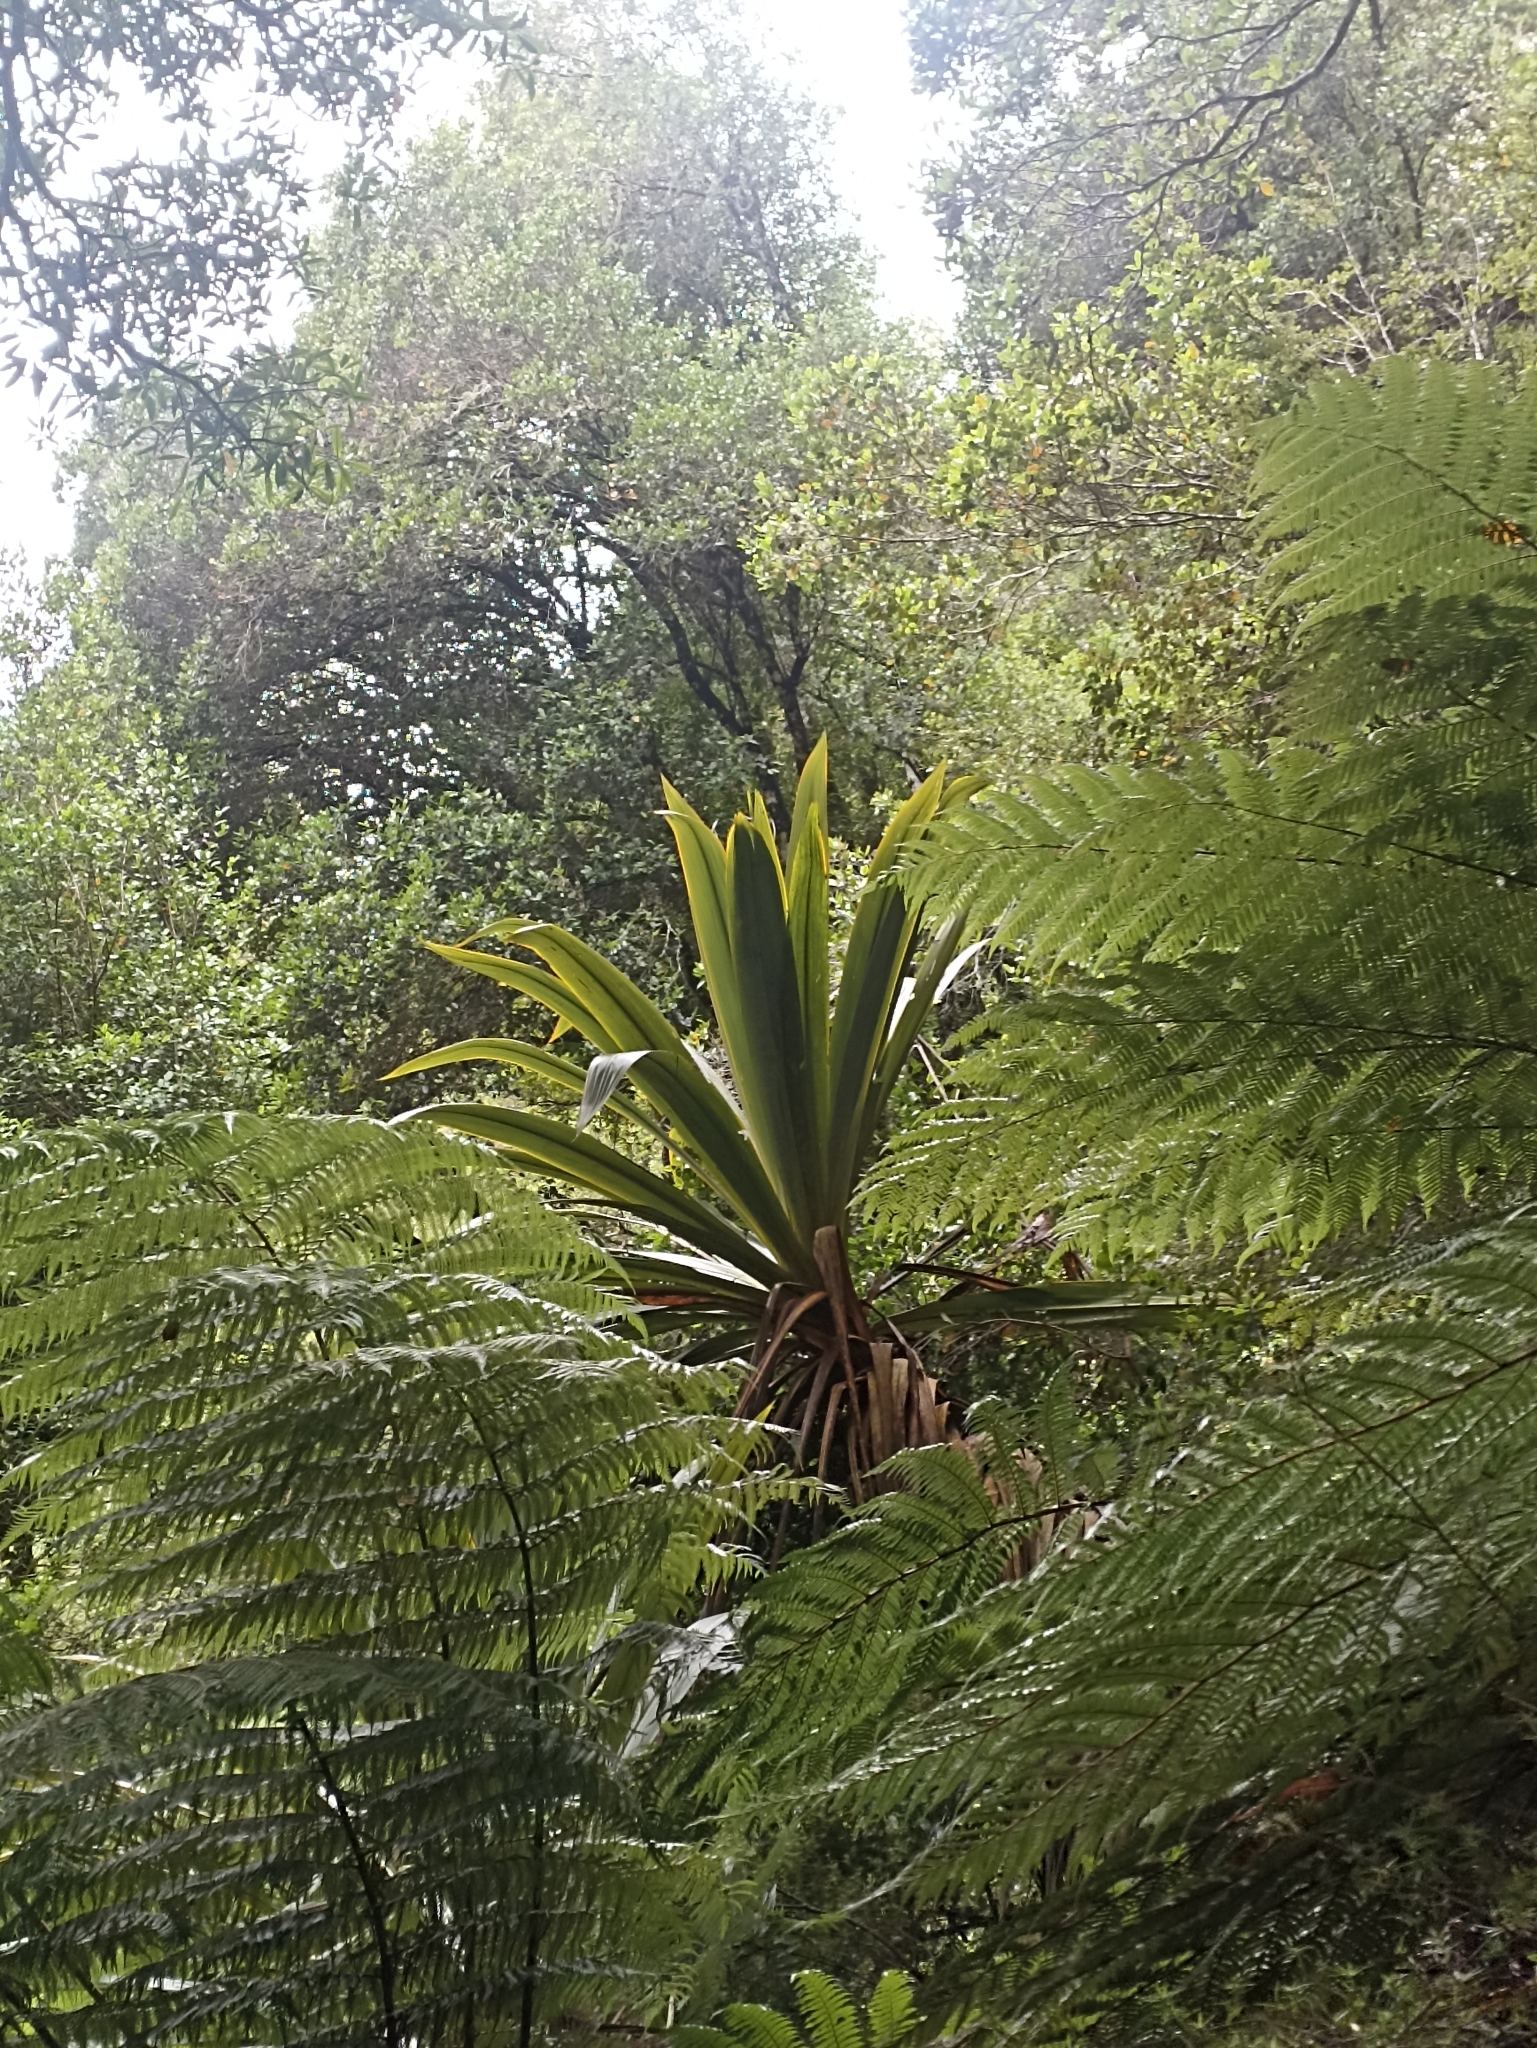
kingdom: Plantae
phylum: Tracheophyta
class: Liliopsida
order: Asparagales
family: Asparagaceae
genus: Cordyline
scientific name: Cordyline indivisa
